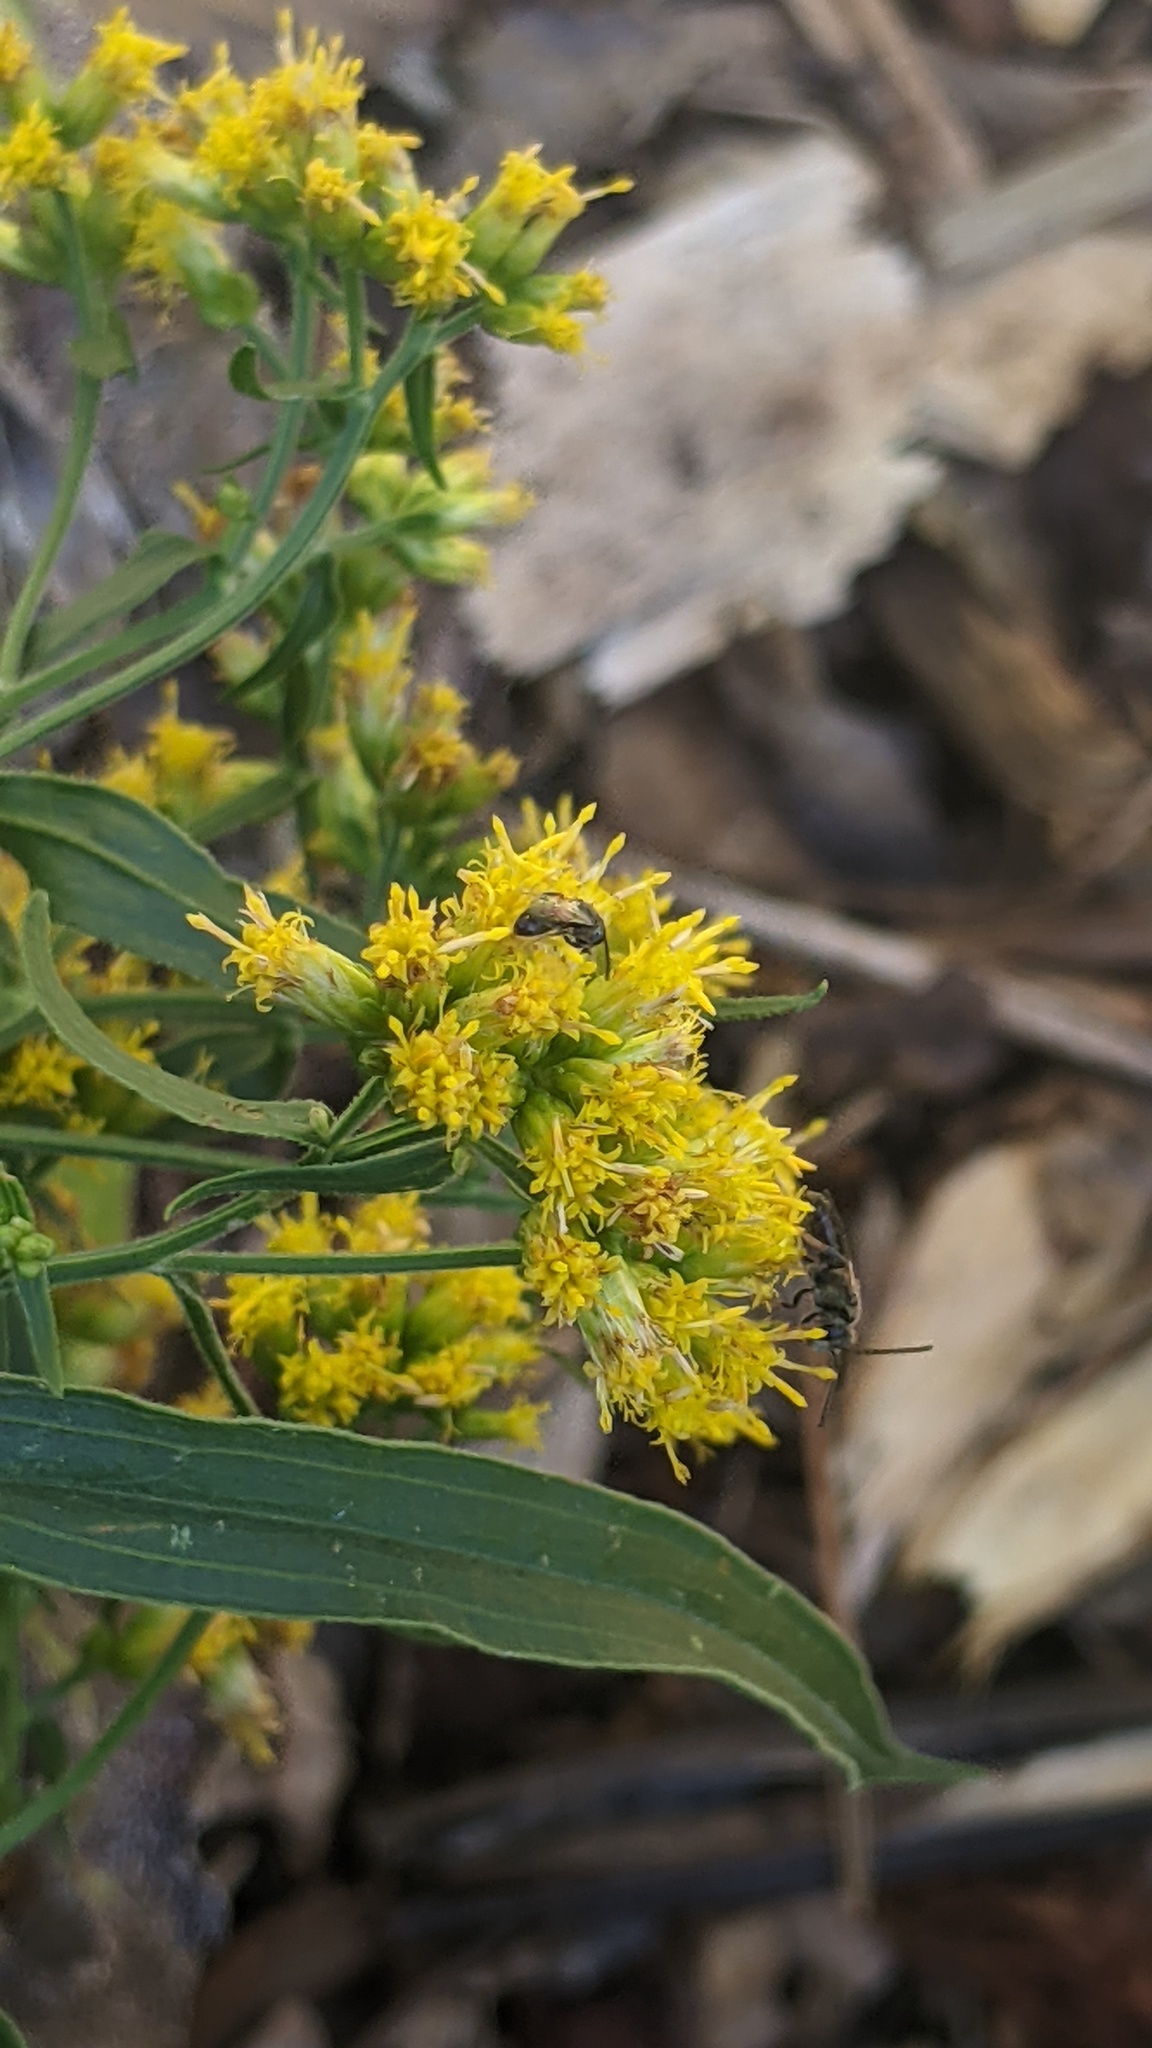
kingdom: Animalia
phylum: Arthropoda
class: Insecta
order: Hymenoptera
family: Halictidae
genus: Dialictus
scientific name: Dialictus
